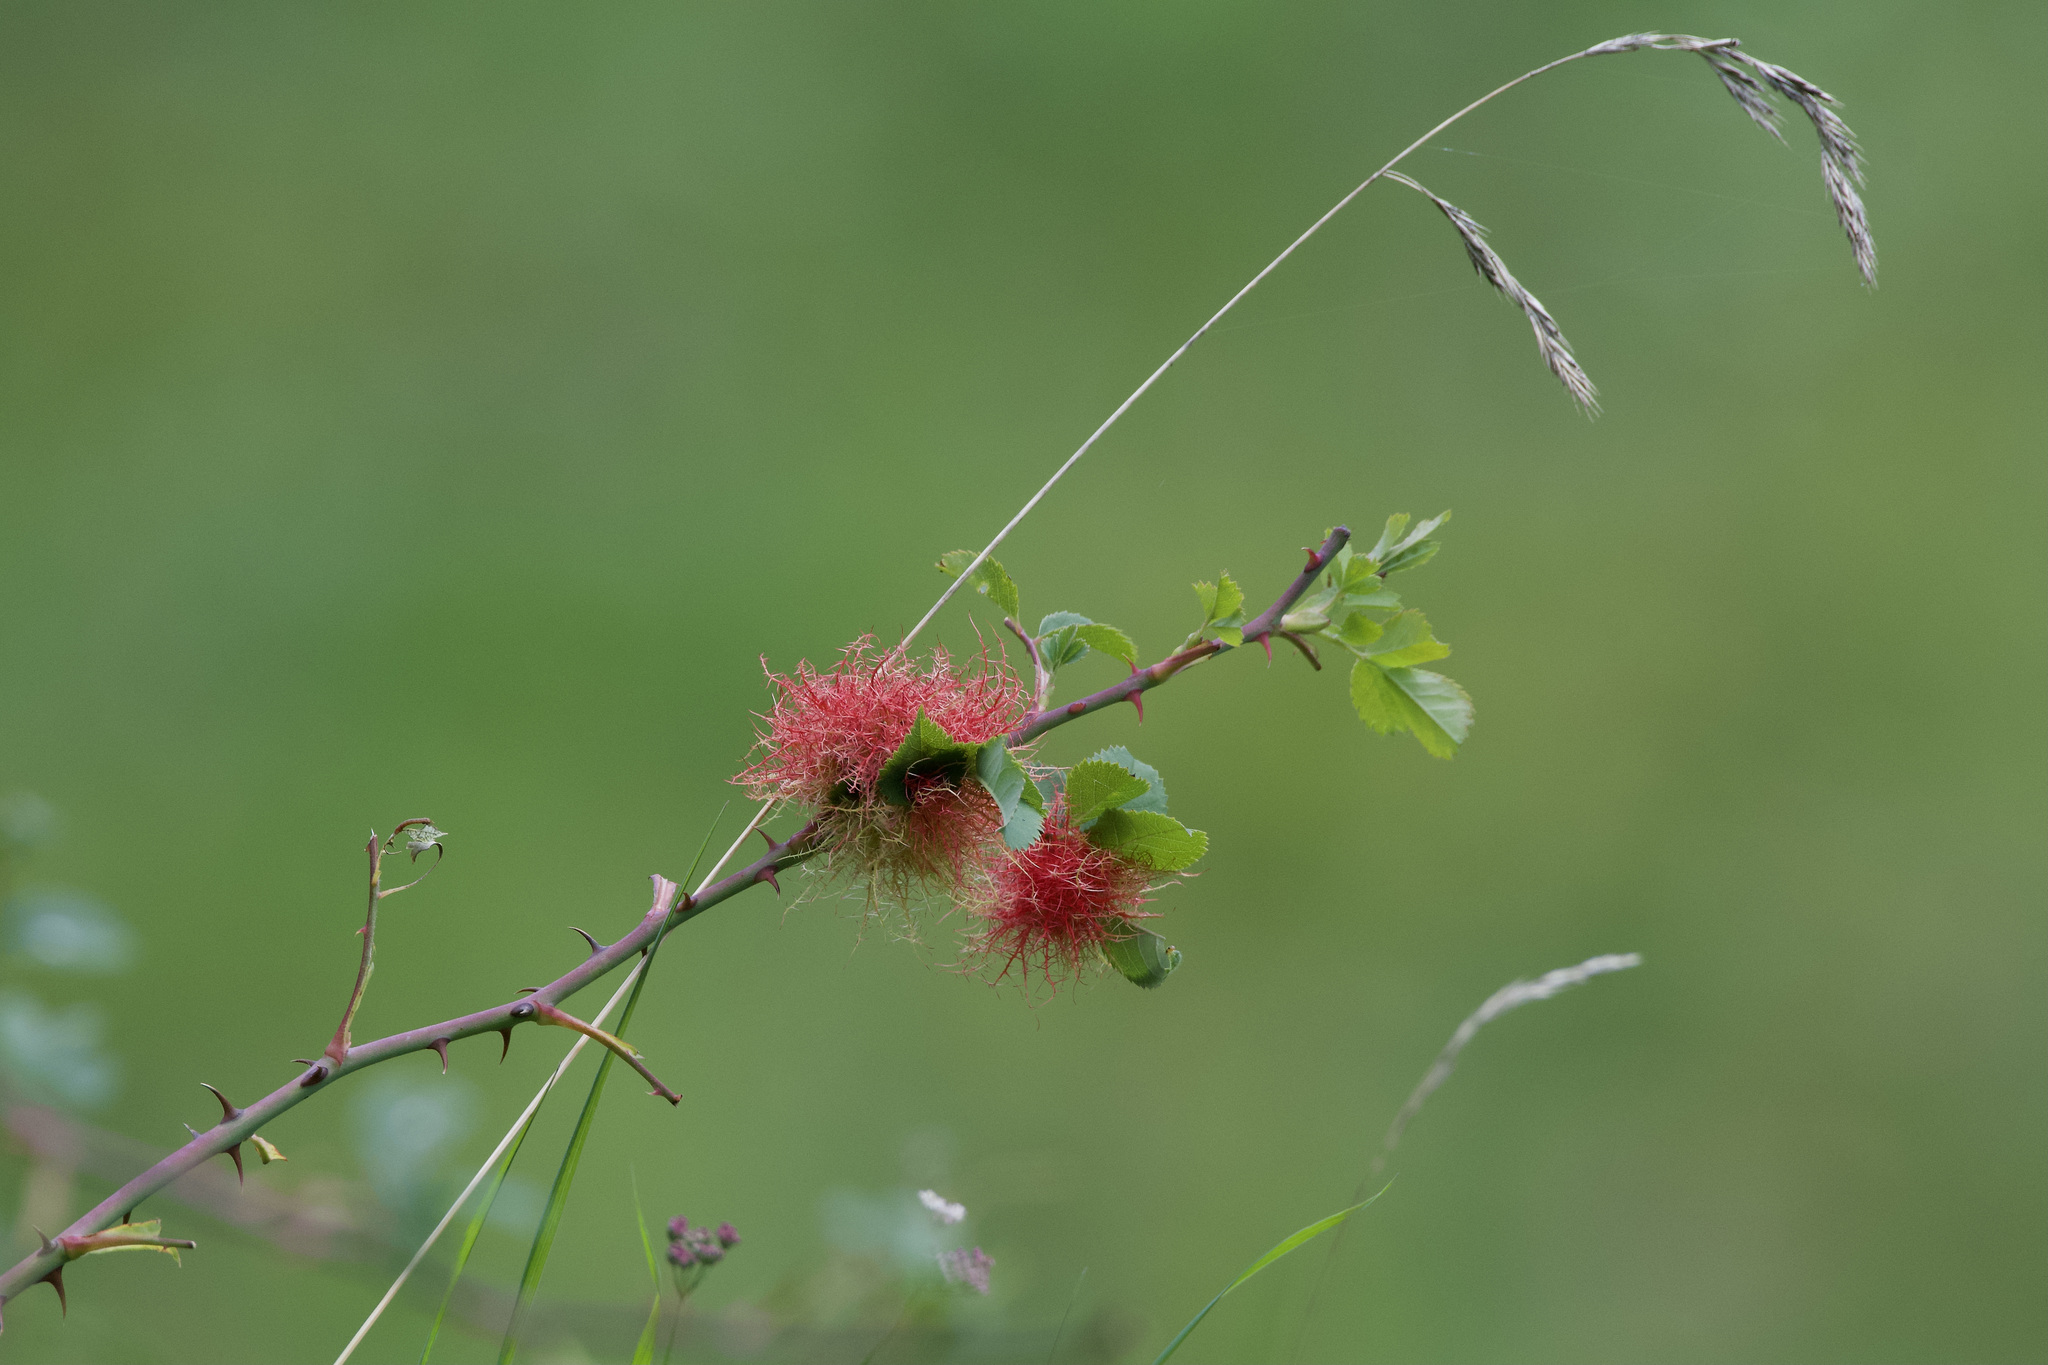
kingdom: Animalia
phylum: Arthropoda
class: Insecta
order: Hymenoptera
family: Cynipidae
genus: Diplolepis
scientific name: Diplolepis rosae
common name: Bedeguar gall
